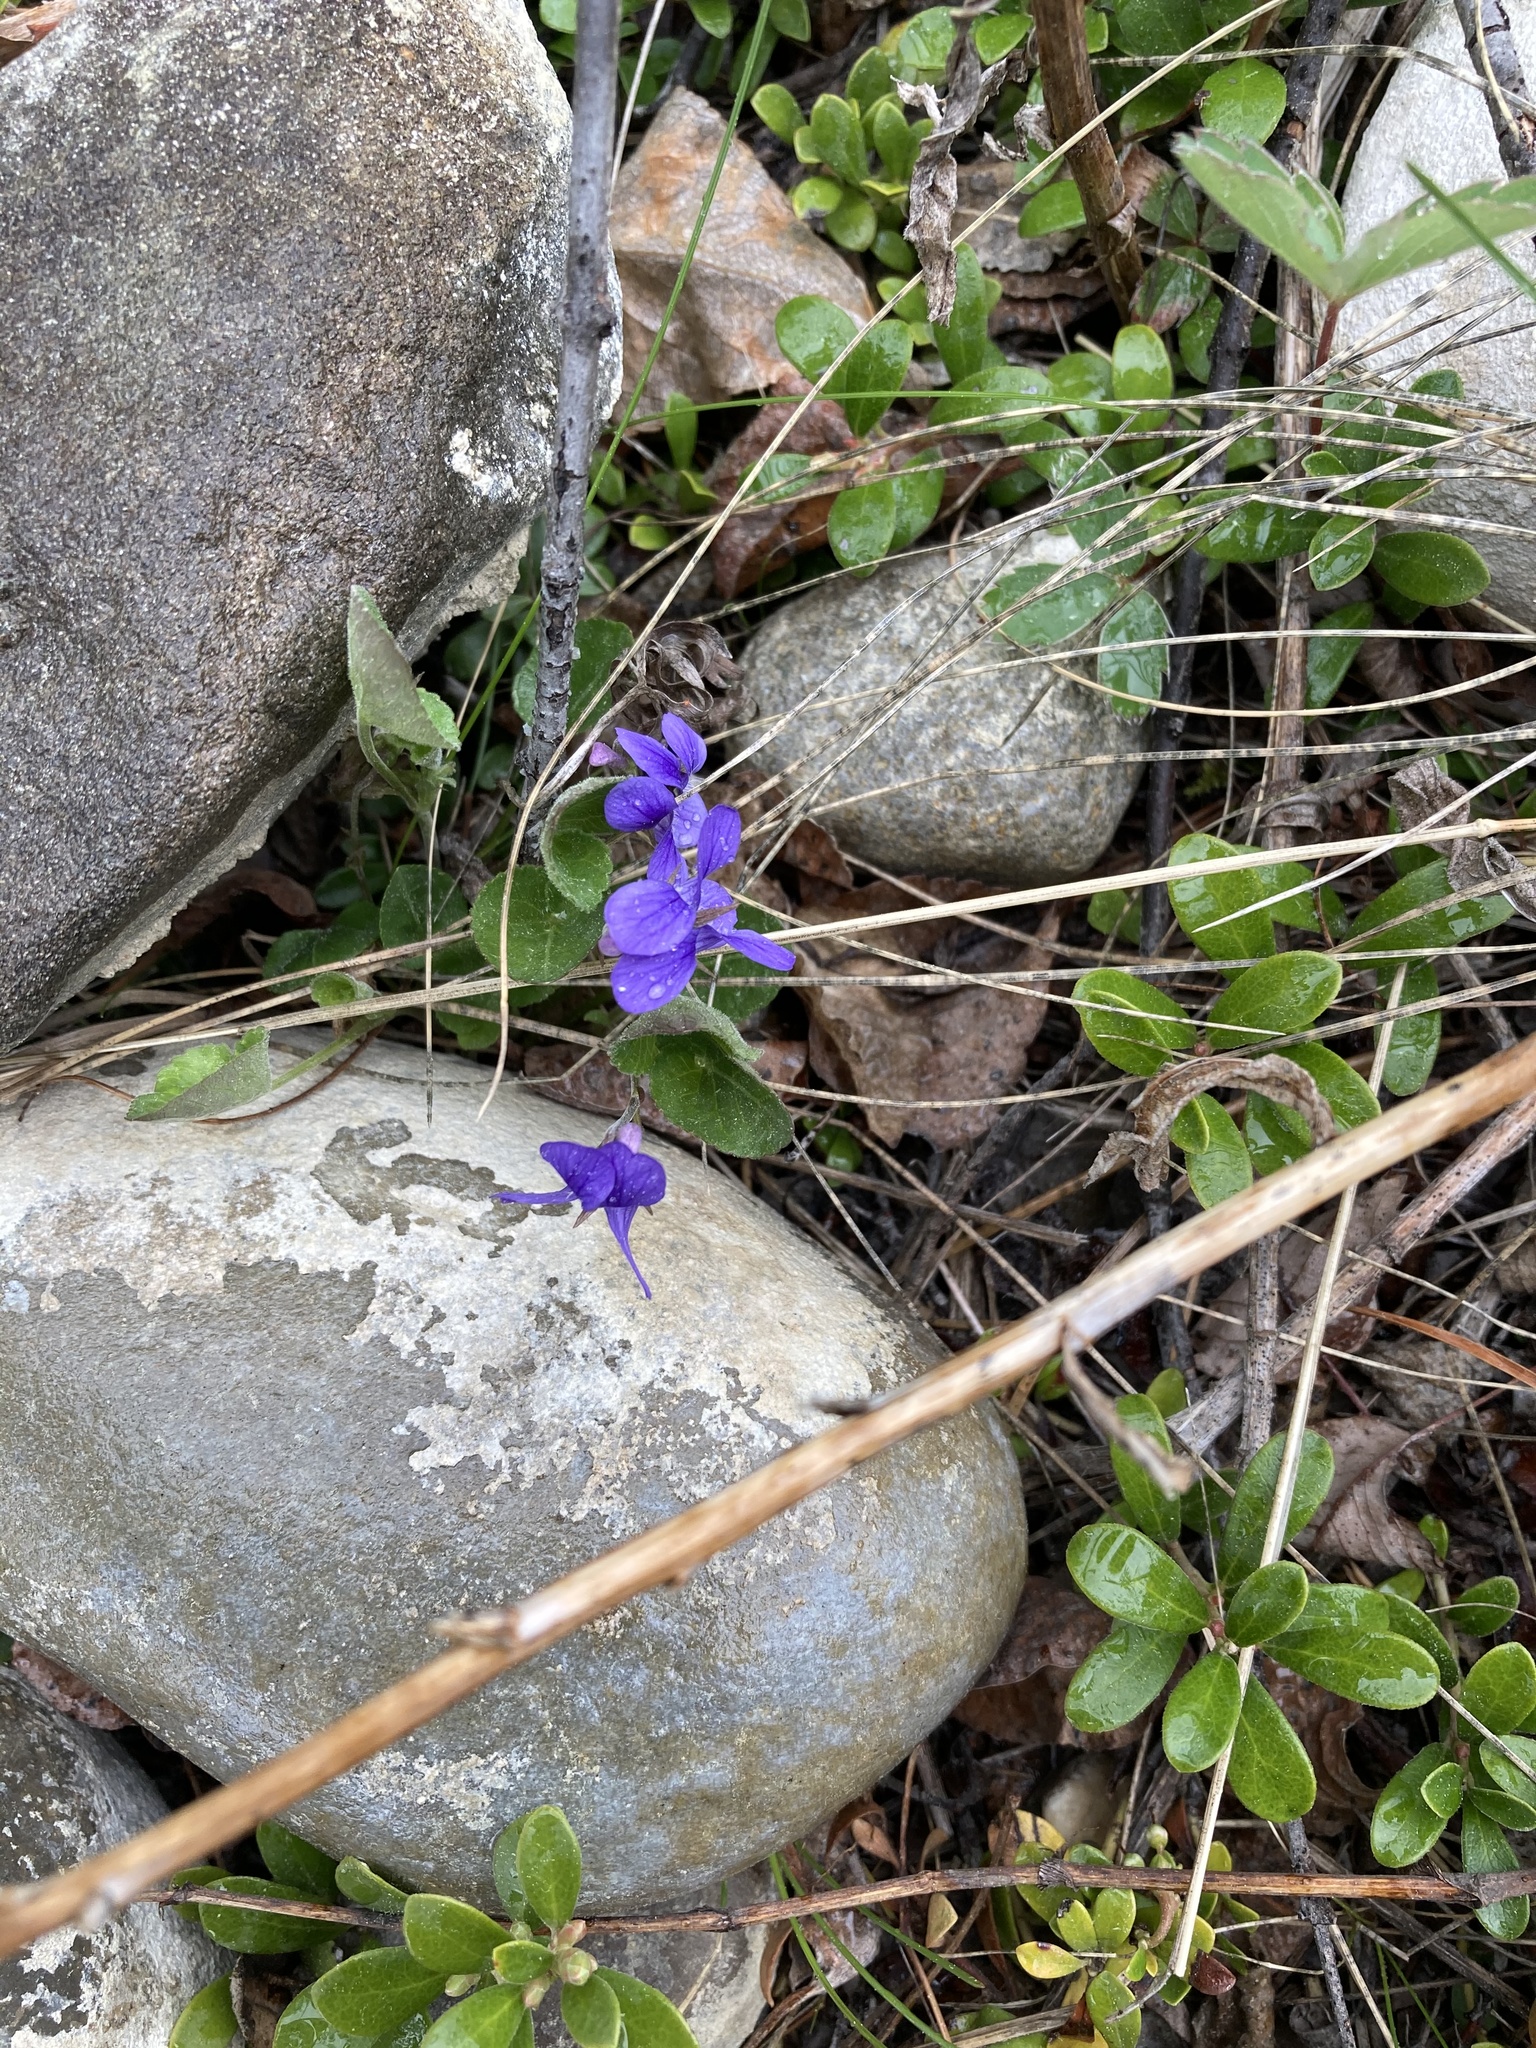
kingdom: Plantae
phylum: Tracheophyta
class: Magnoliopsida
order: Malpighiales
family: Violaceae
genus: Viola
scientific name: Viola adunca
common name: Sand violet
